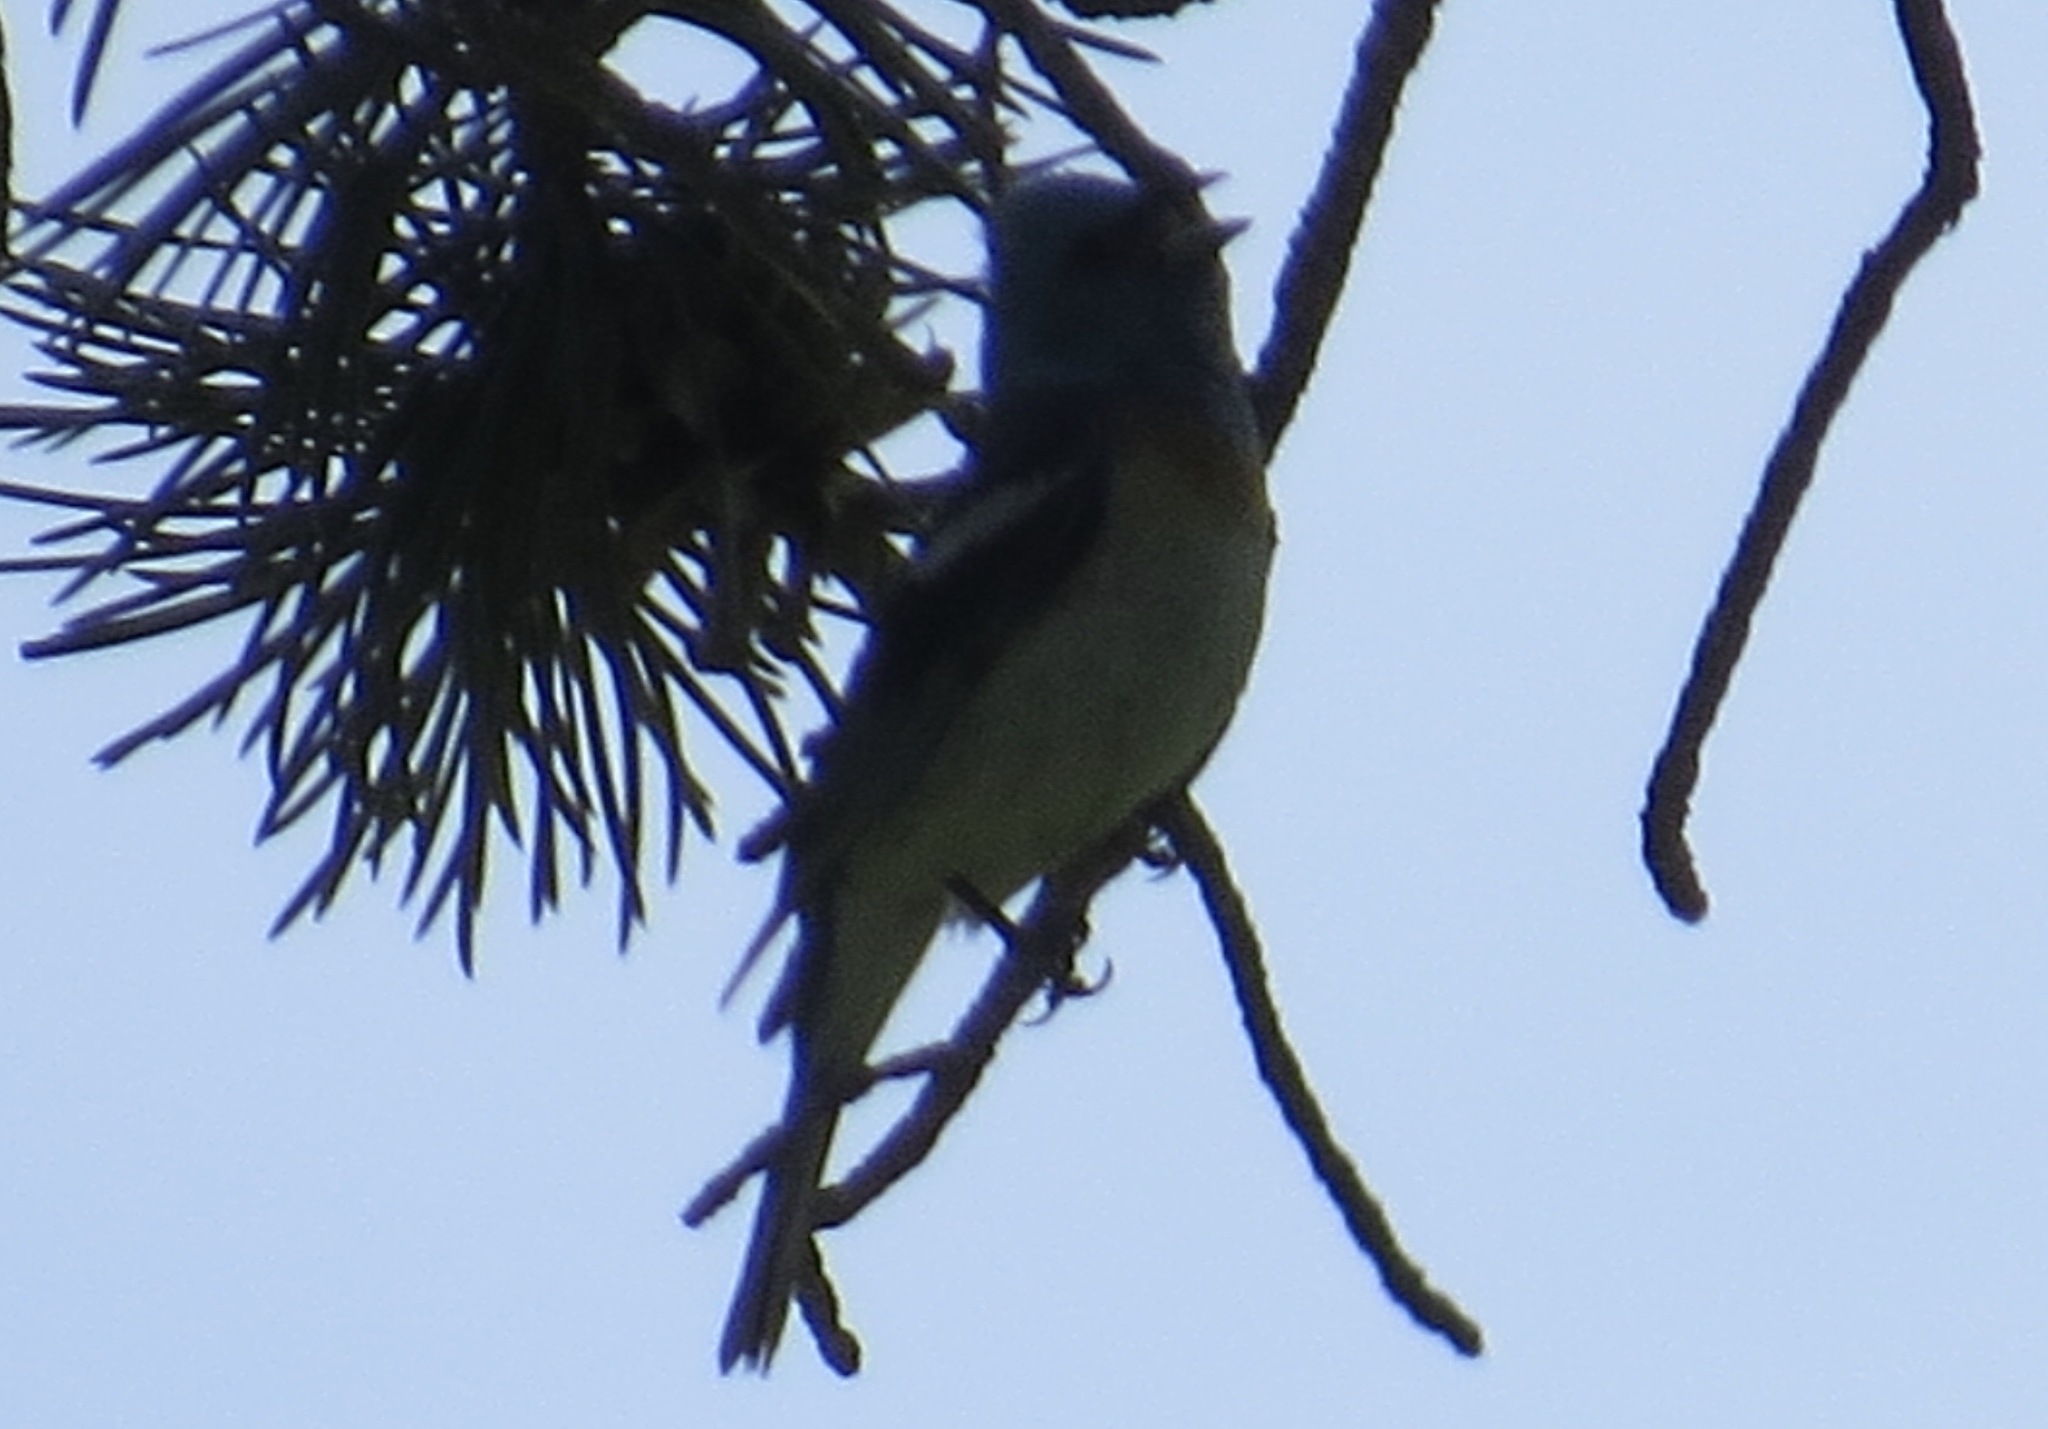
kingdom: Animalia
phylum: Chordata
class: Aves
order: Passeriformes
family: Cardinalidae
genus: Passerina
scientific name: Passerina amoena
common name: Lazuli bunting
